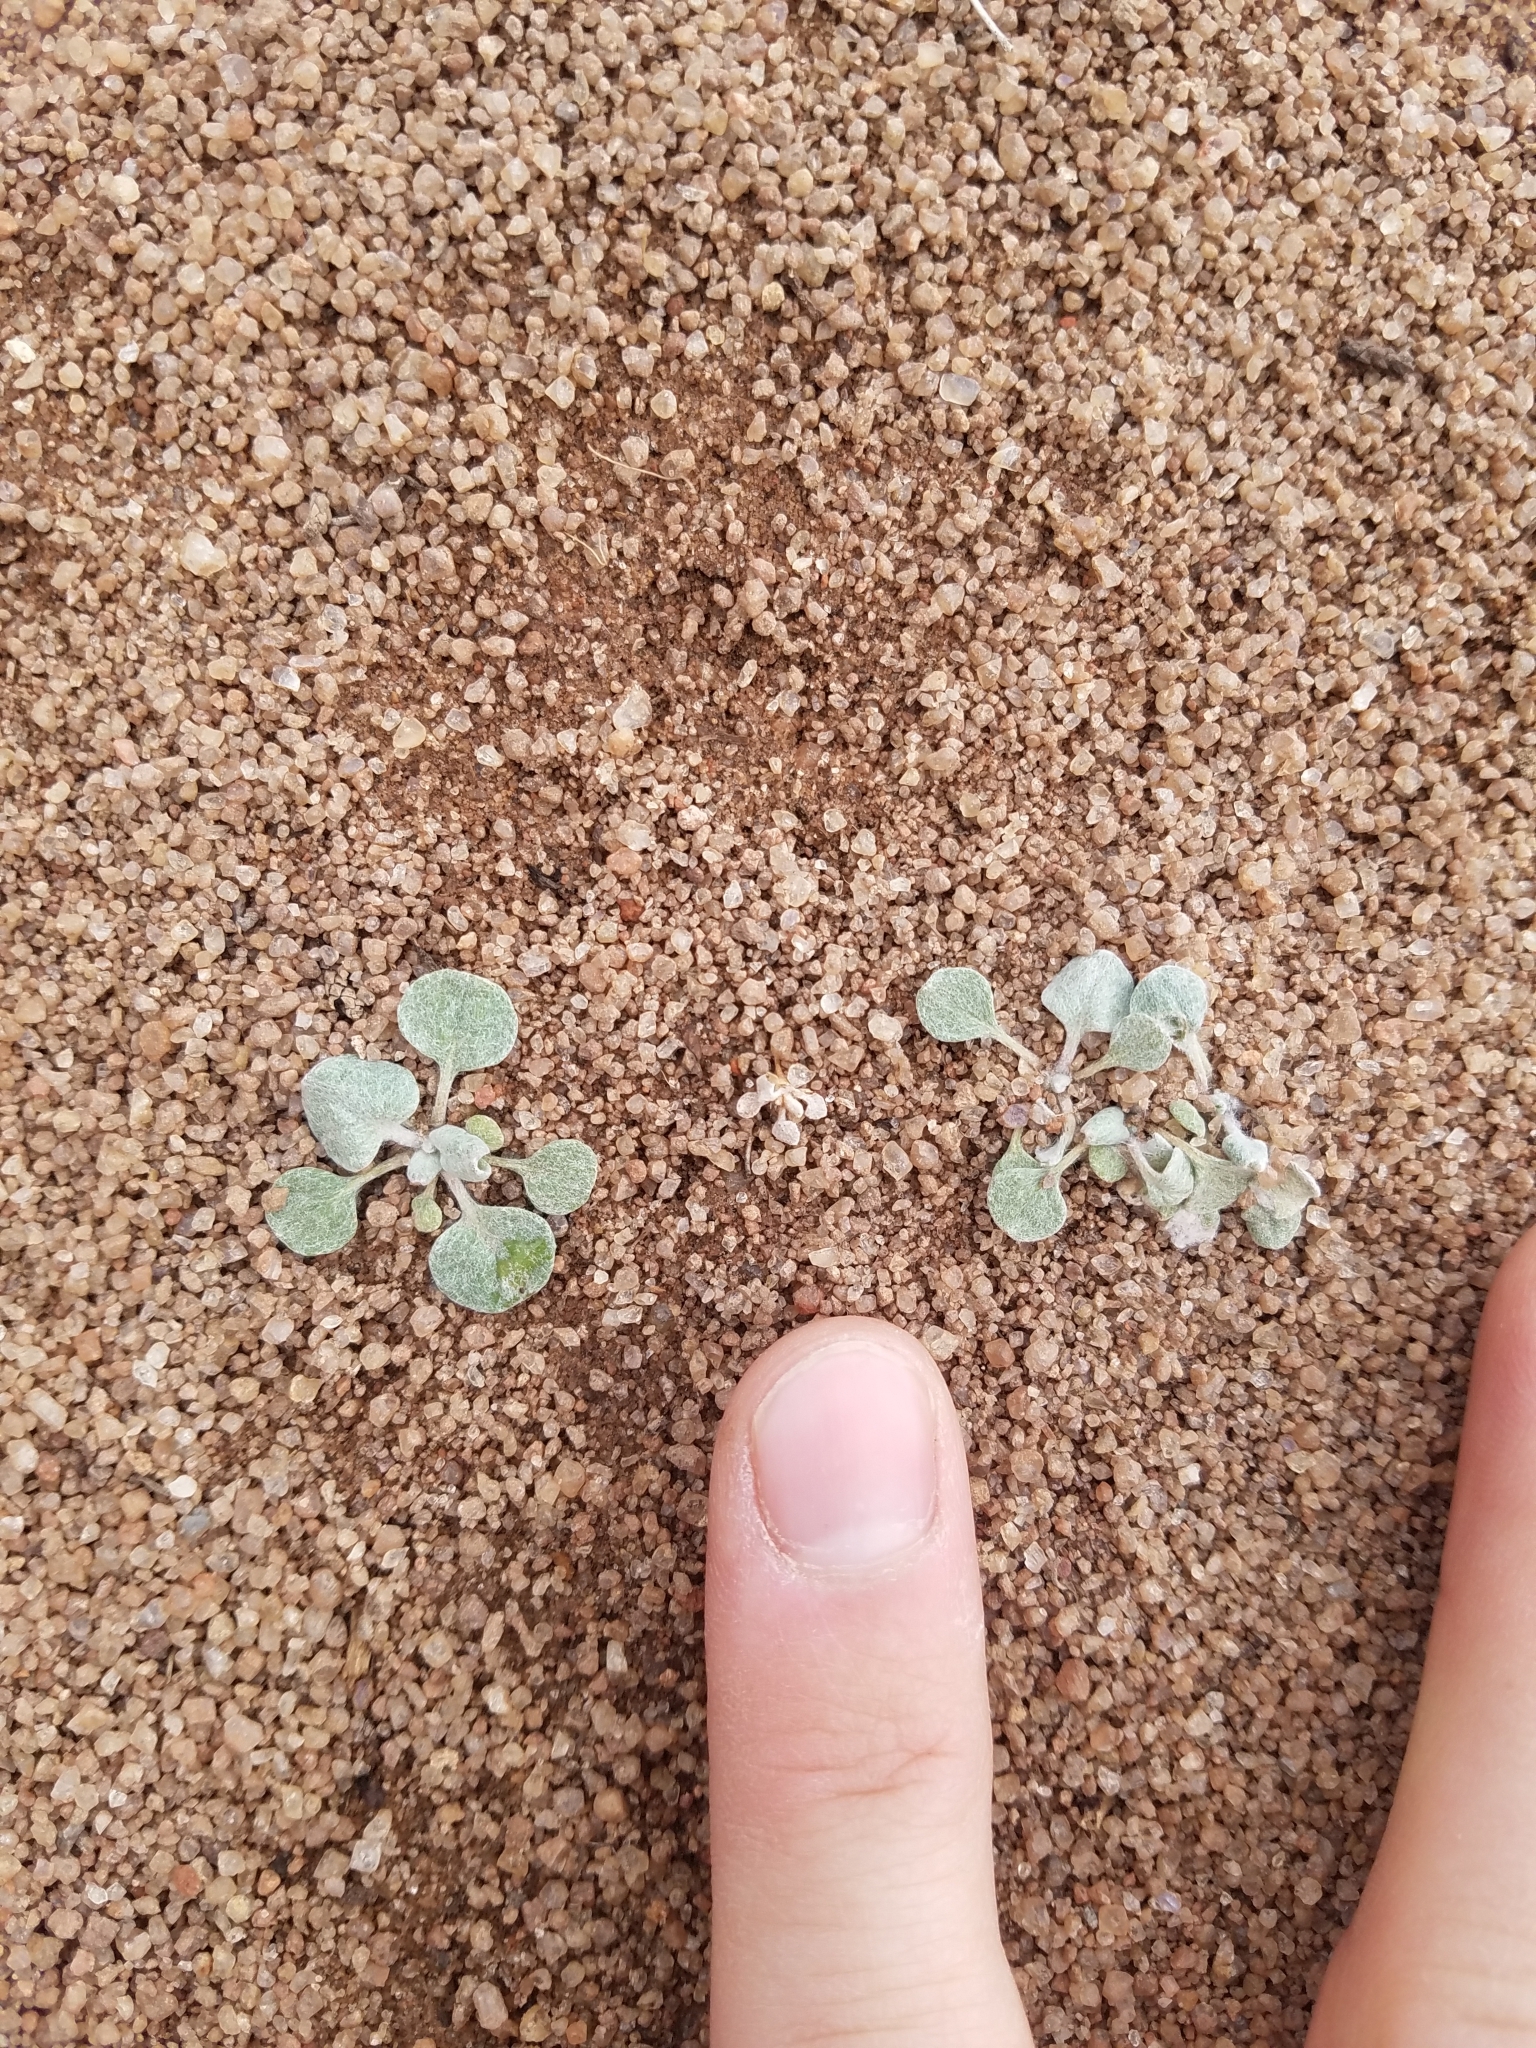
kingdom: Plantae
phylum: Tracheophyta
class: Magnoliopsida
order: Caryophyllales
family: Polygonaceae
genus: Eriogonum
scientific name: Eriogonum baileyi
